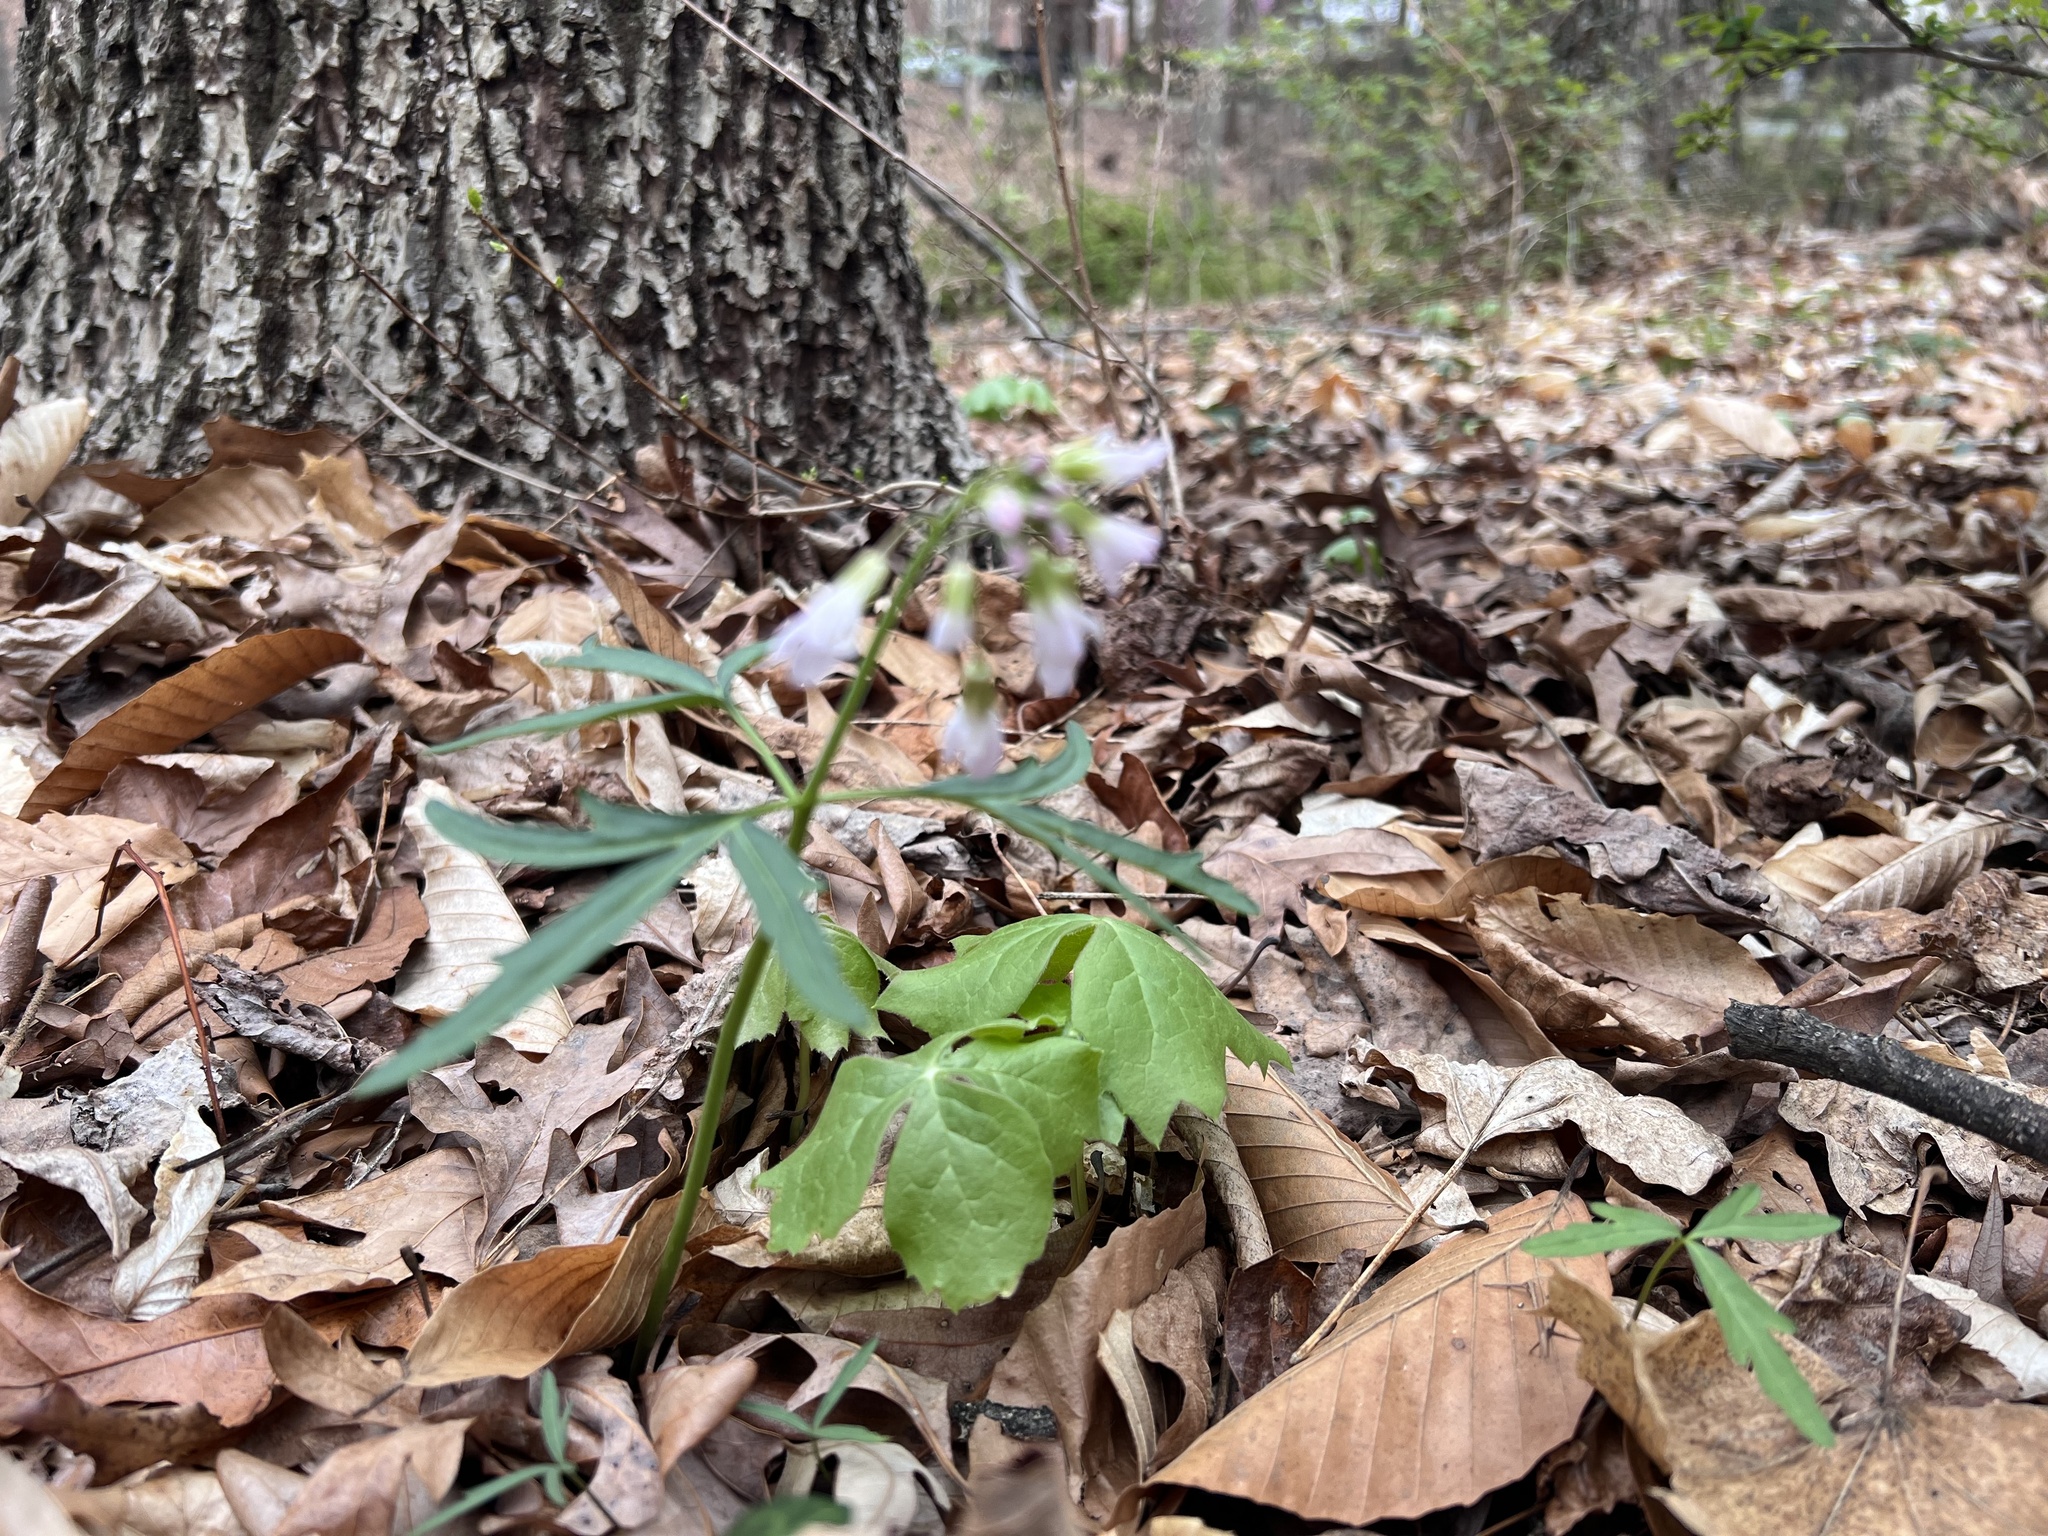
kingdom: Plantae
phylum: Tracheophyta
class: Magnoliopsida
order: Brassicales
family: Brassicaceae
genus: Cardamine
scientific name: Cardamine concatenata
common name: Cut-leaf toothcup
